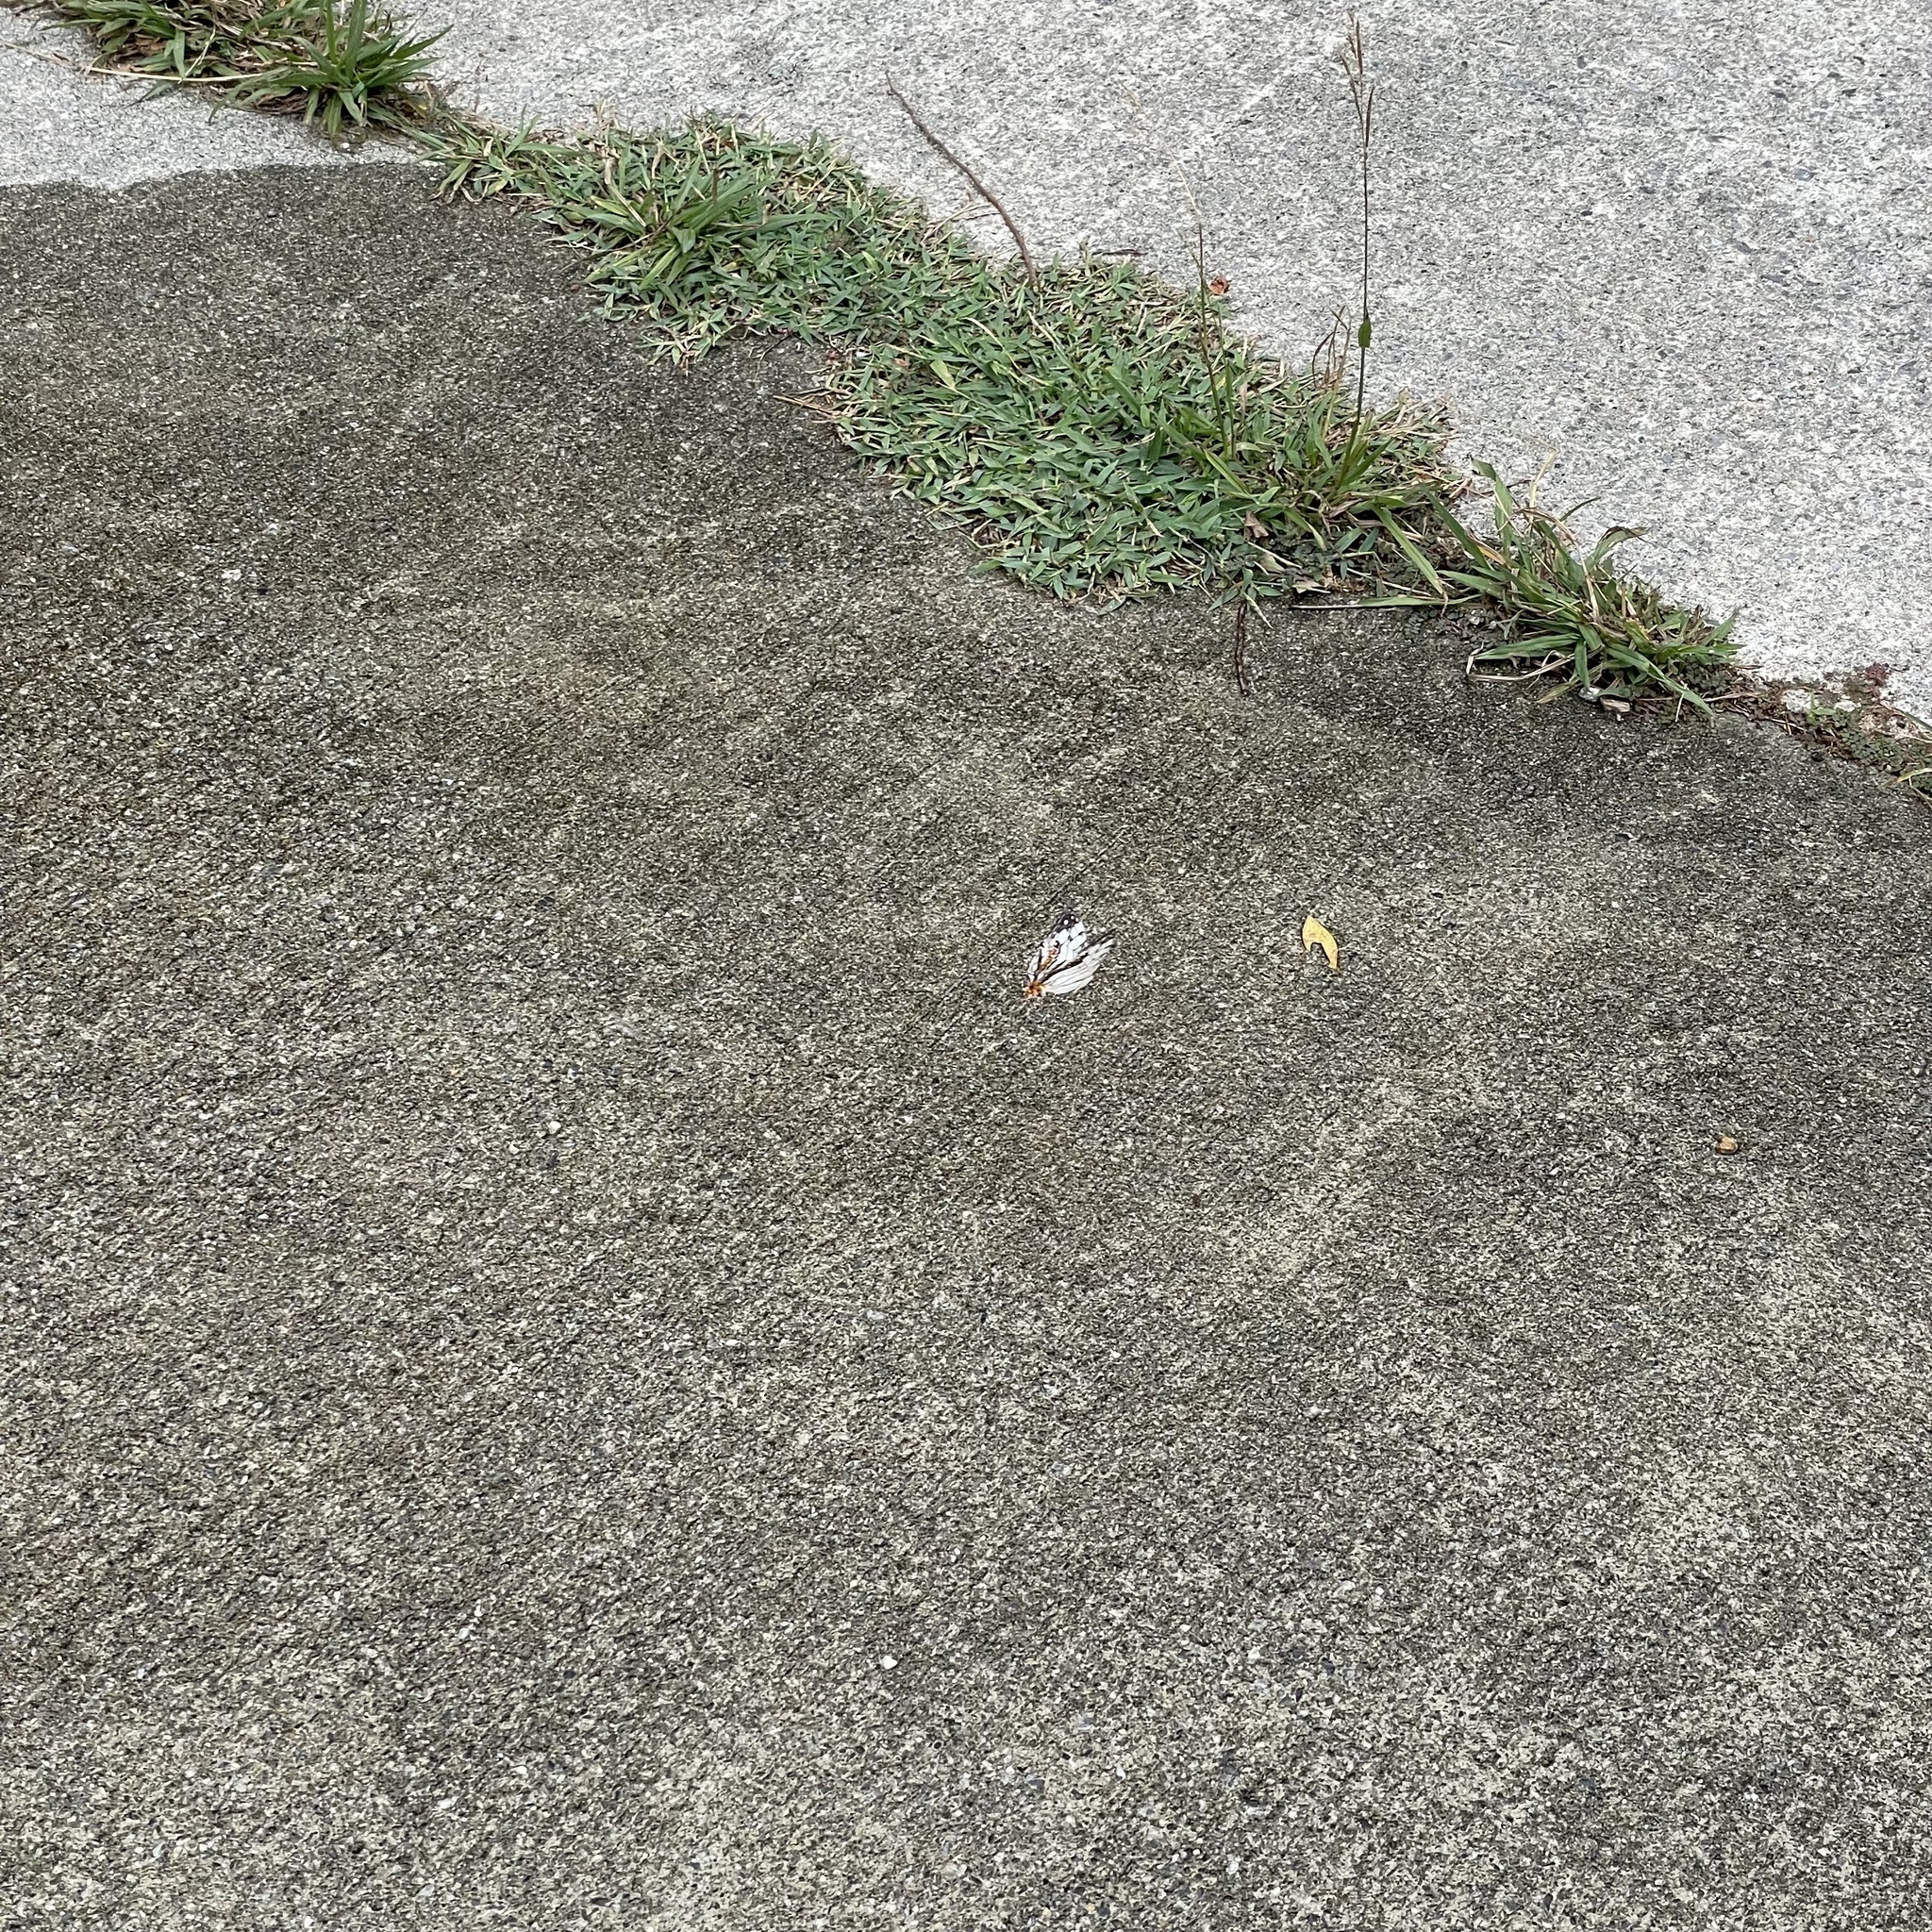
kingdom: Animalia
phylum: Arthropoda
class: Insecta
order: Lepidoptera
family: Nymphalidae
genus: Cyrestis
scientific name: Cyrestis thyodamas
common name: Common mapwing
